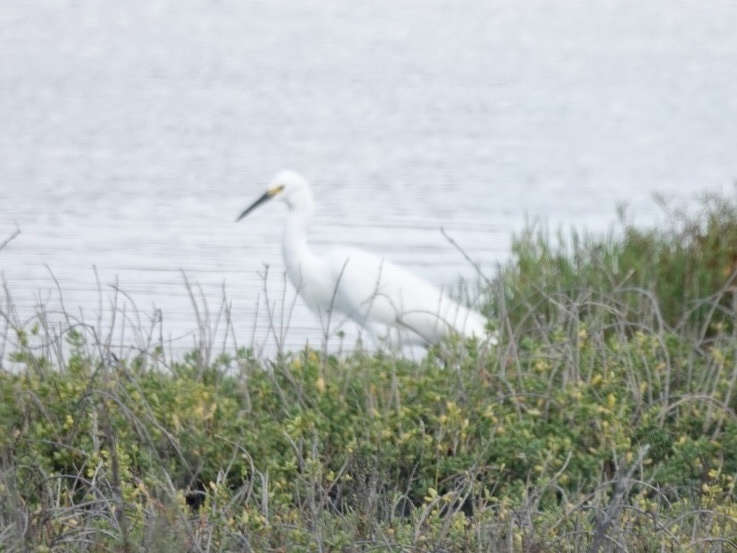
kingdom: Animalia
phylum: Chordata
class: Aves
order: Pelecaniformes
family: Ardeidae
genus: Egretta
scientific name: Egretta thula
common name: Snowy egret
